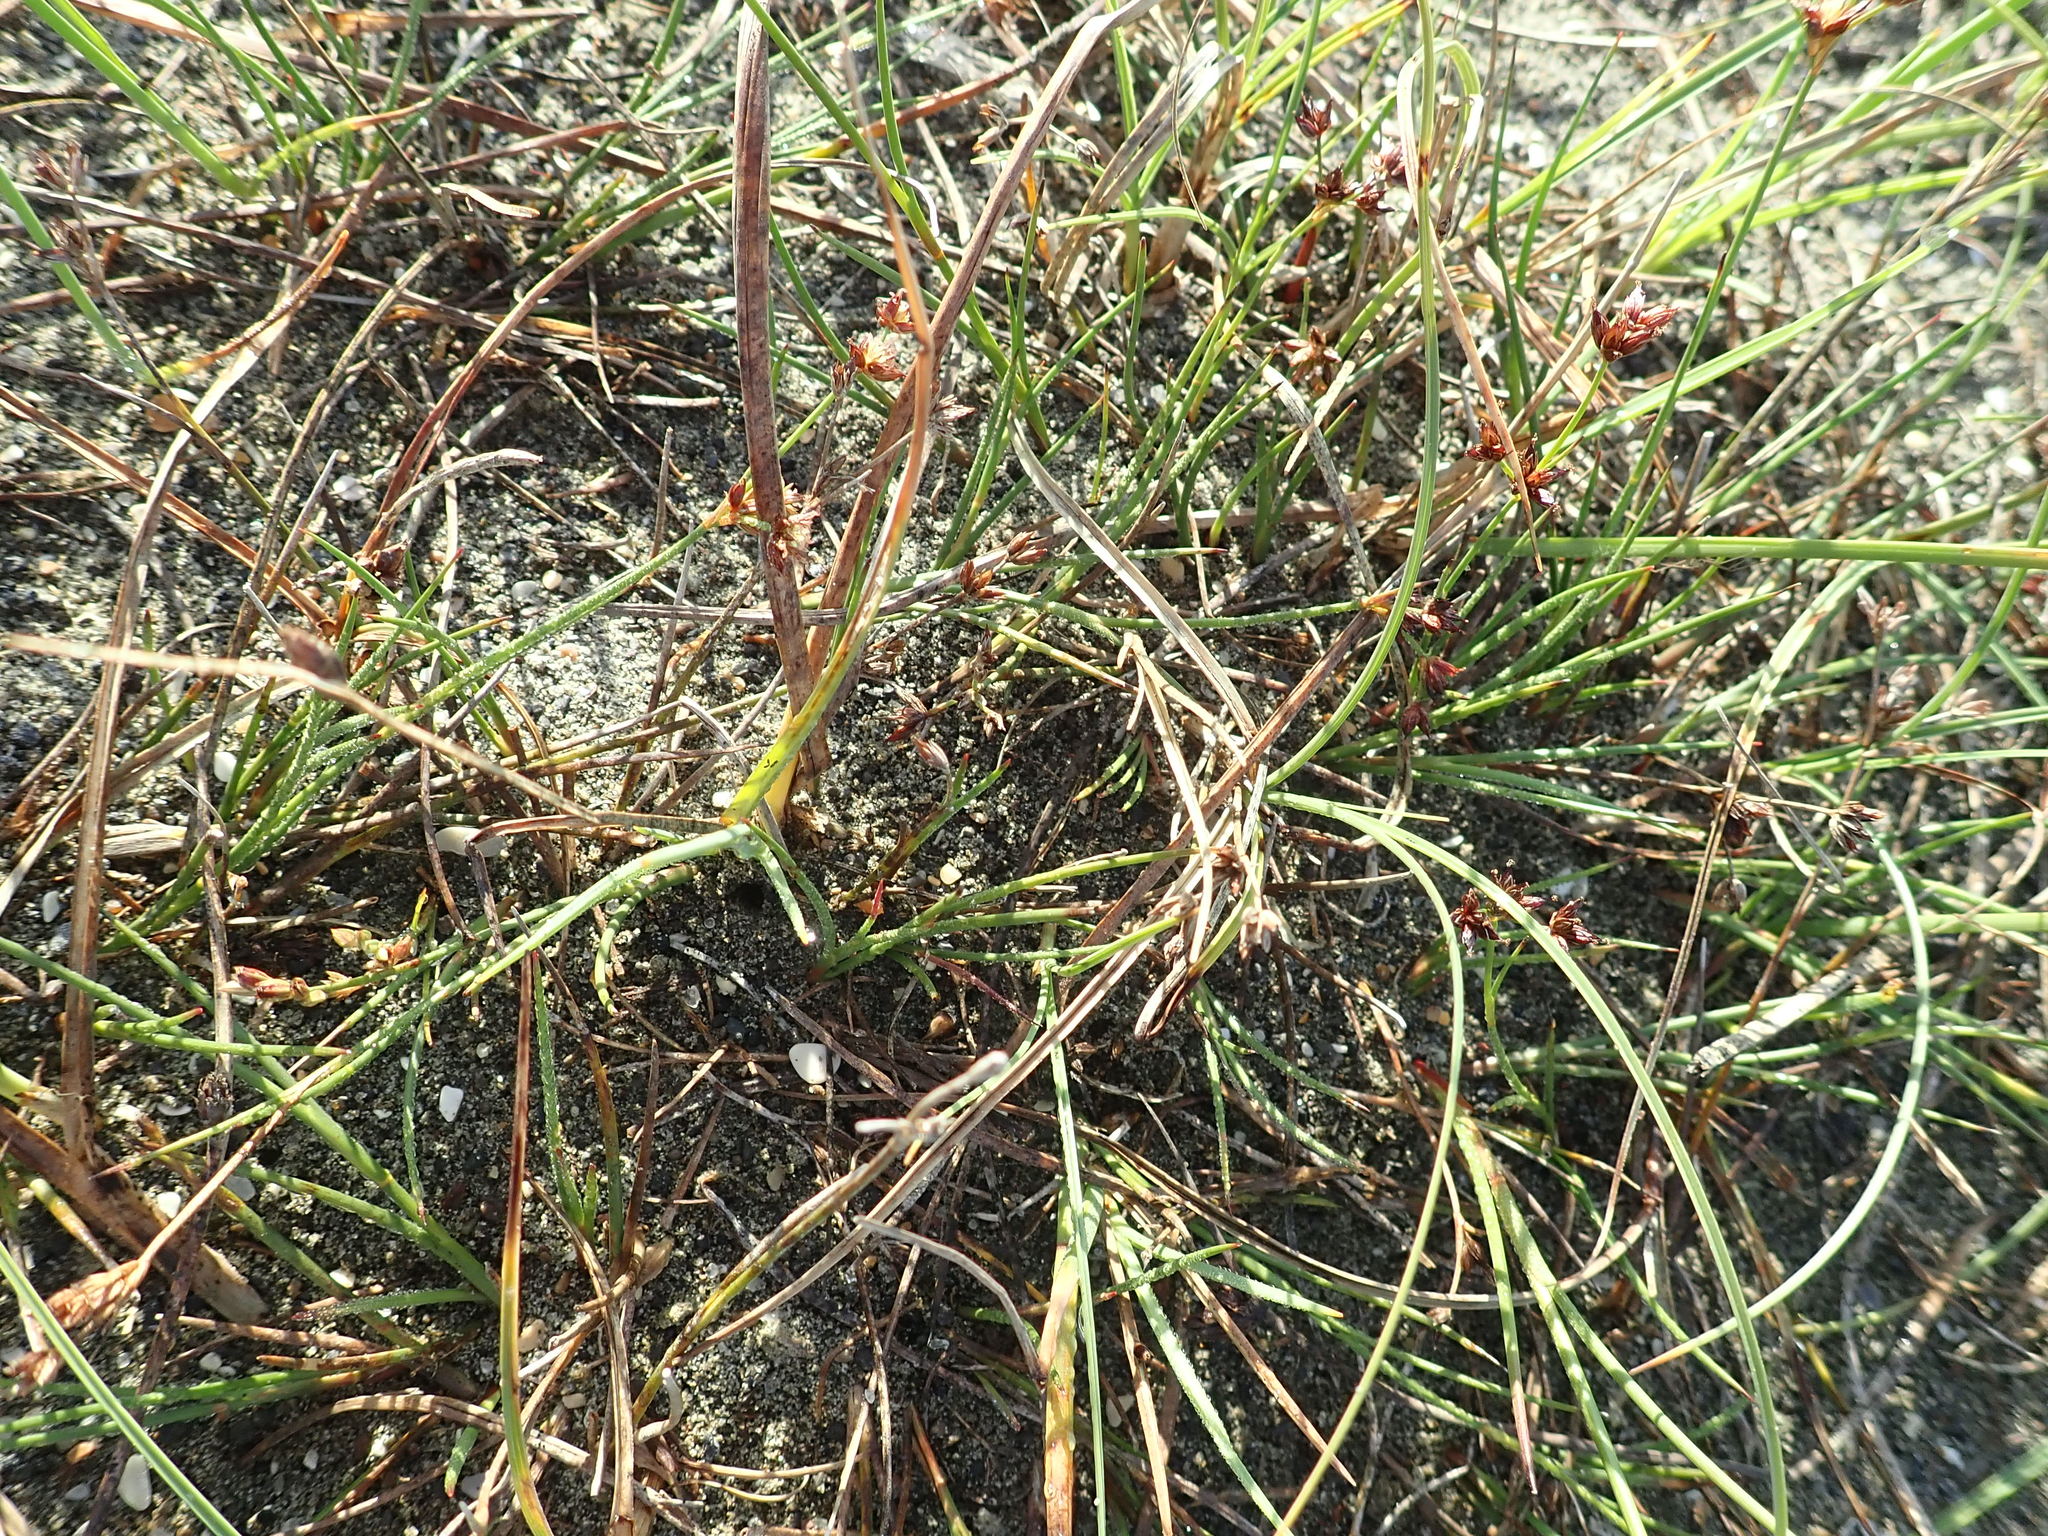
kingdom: Plantae
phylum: Tracheophyta
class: Liliopsida
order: Poales
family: Cyperaceae
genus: Carex
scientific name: Carex pumila
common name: Dwarf sedge
